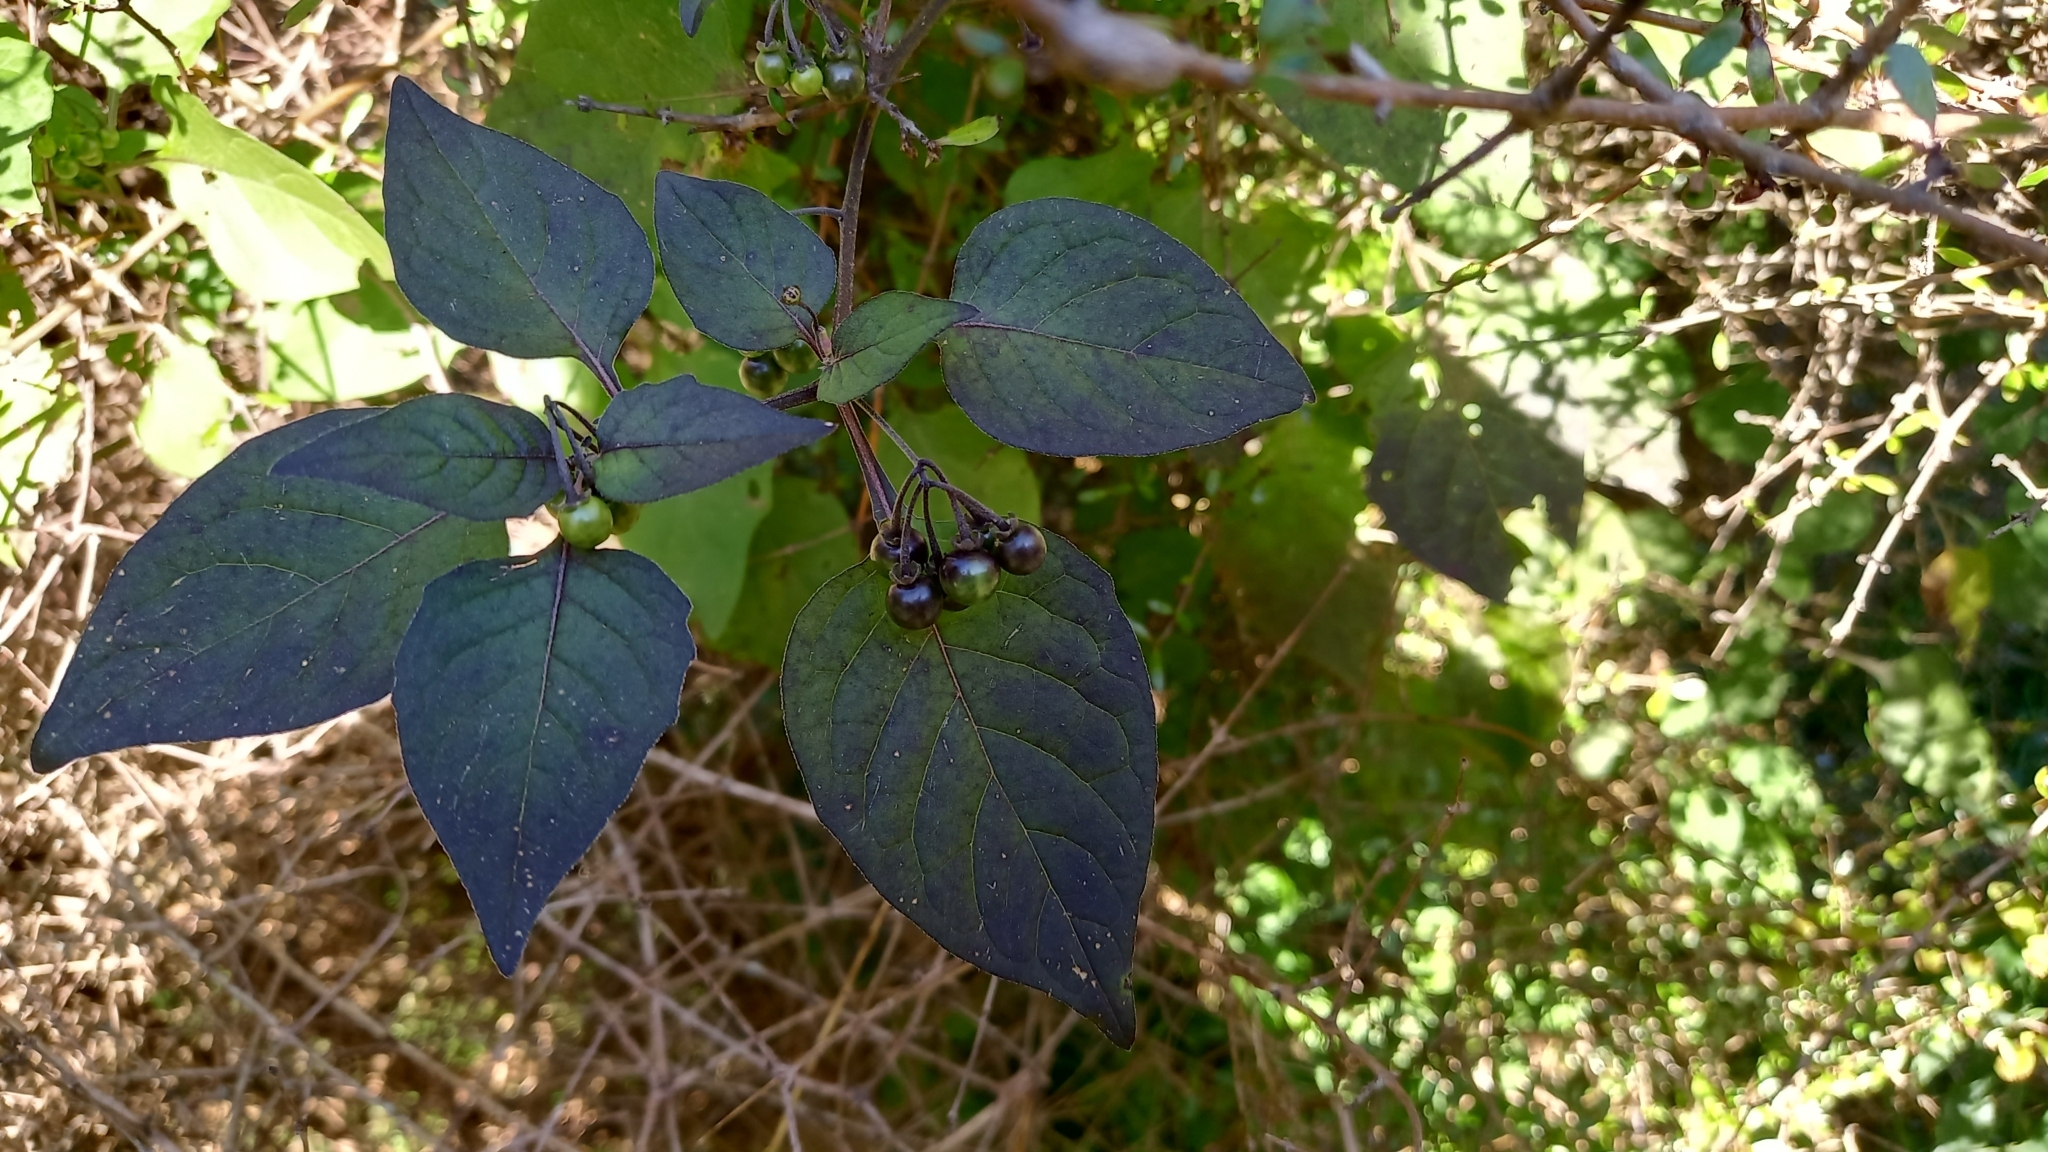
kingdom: Plantae
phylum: Tracheophyta
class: Magnoliopsida
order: Solanales
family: Solanaceae
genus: Solanum
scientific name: Solanum nigrum
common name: Black nightshade
